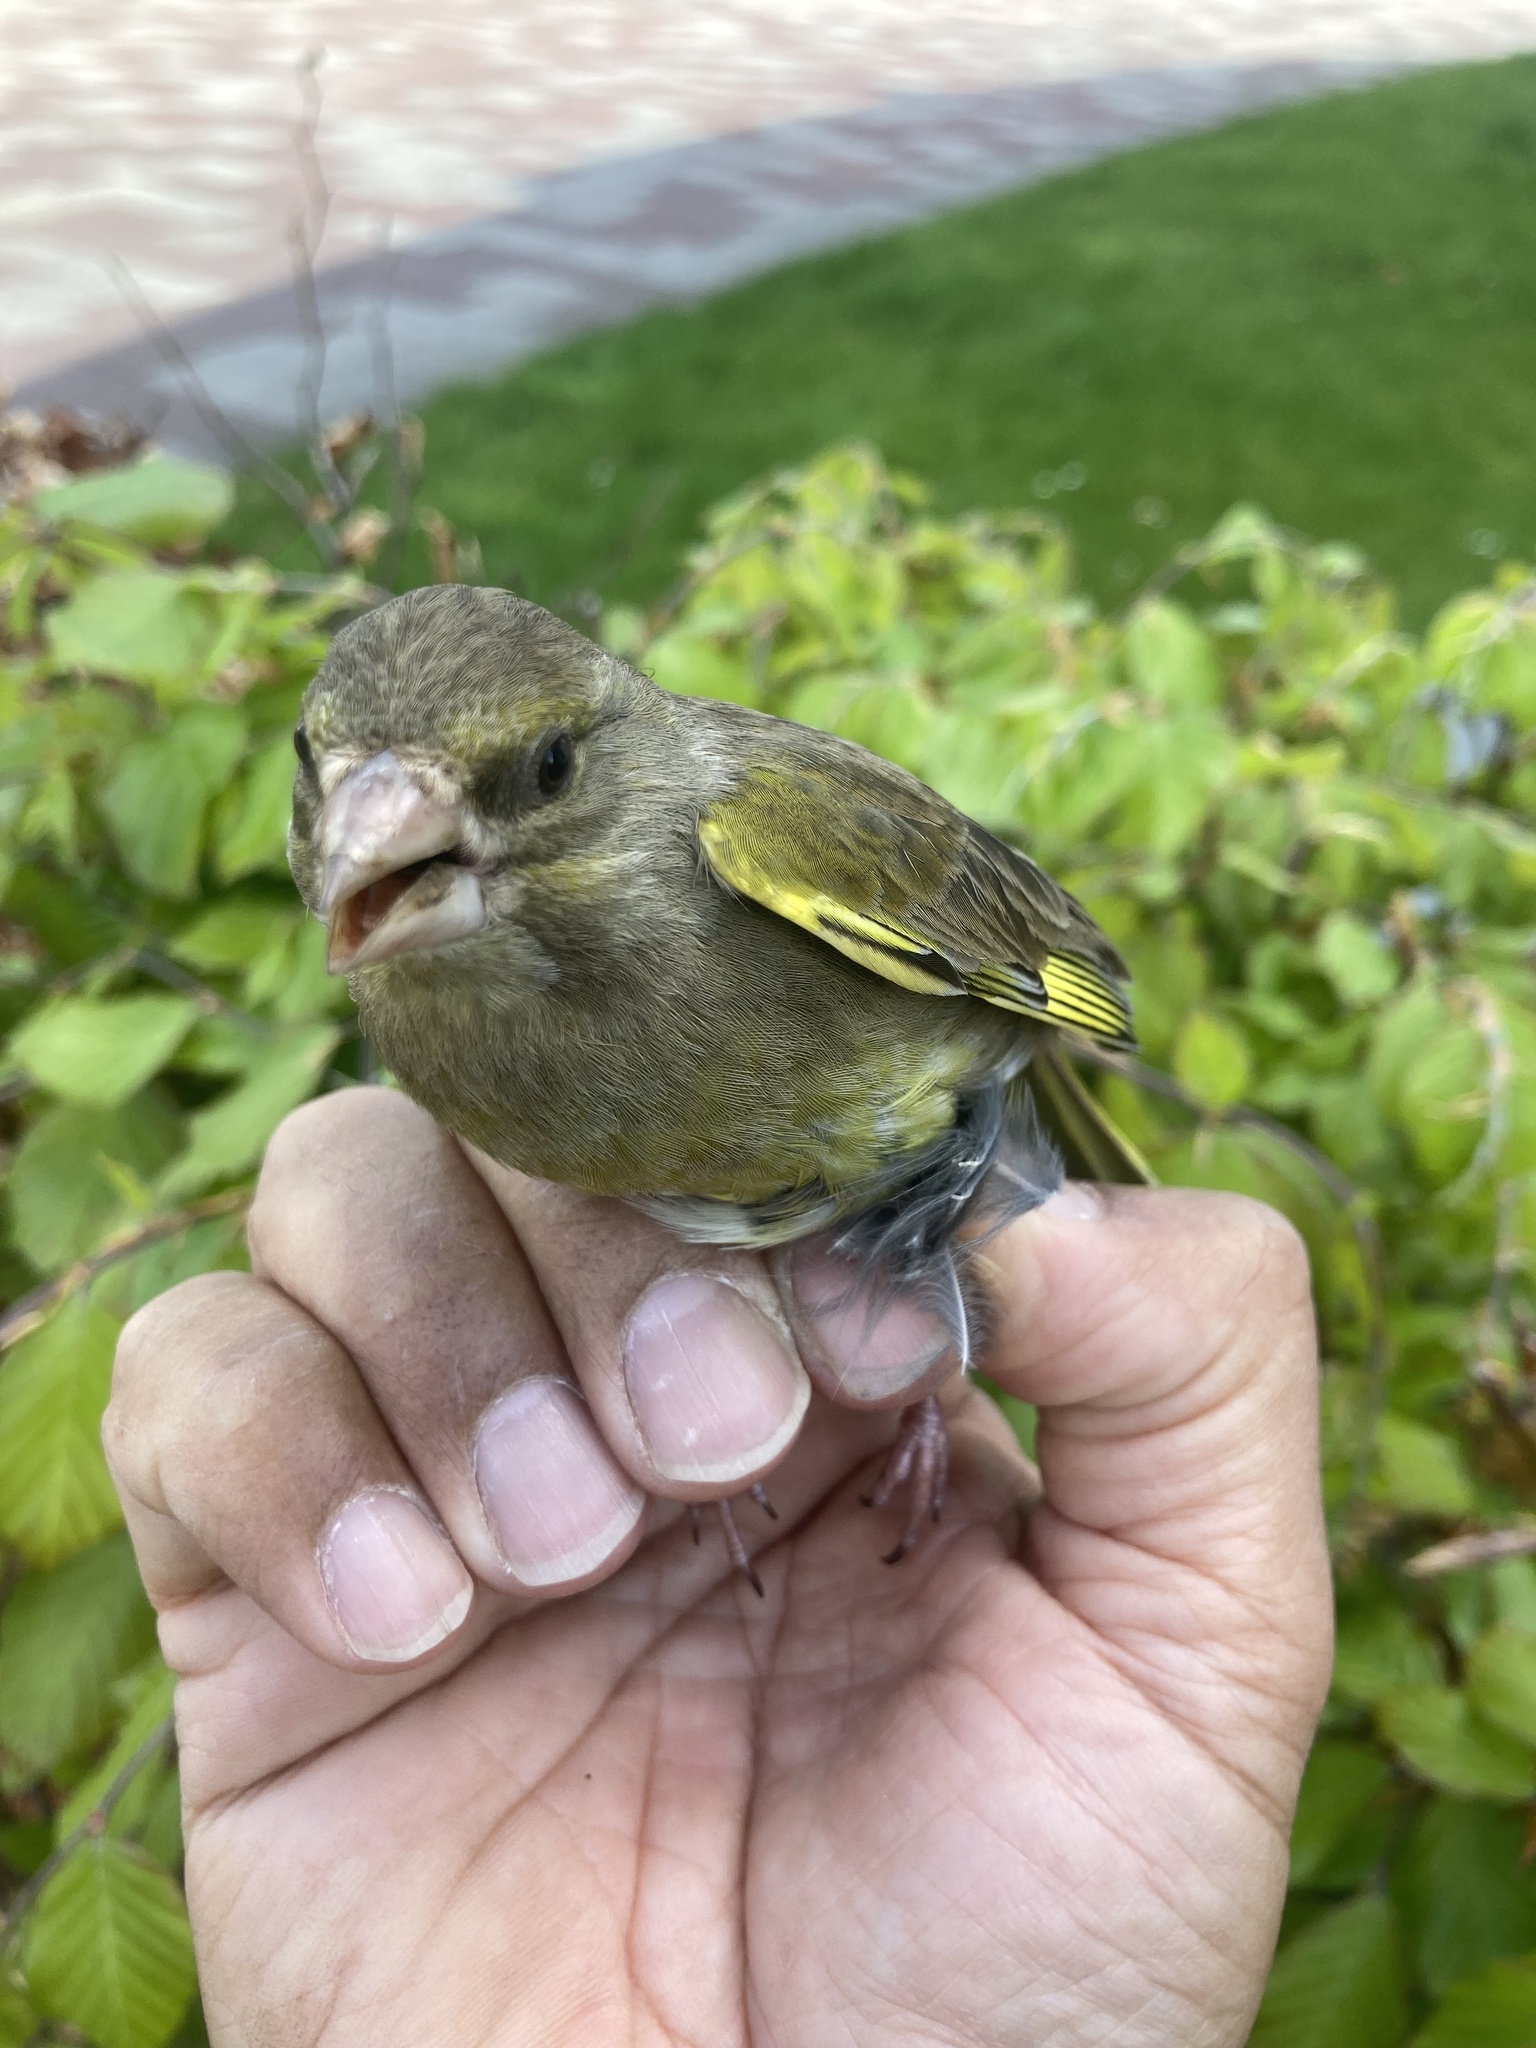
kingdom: Plantae
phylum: Tracheophyta
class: Liliopsida
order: Poales
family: Poaceae
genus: Chloris
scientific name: Chloris chloris
